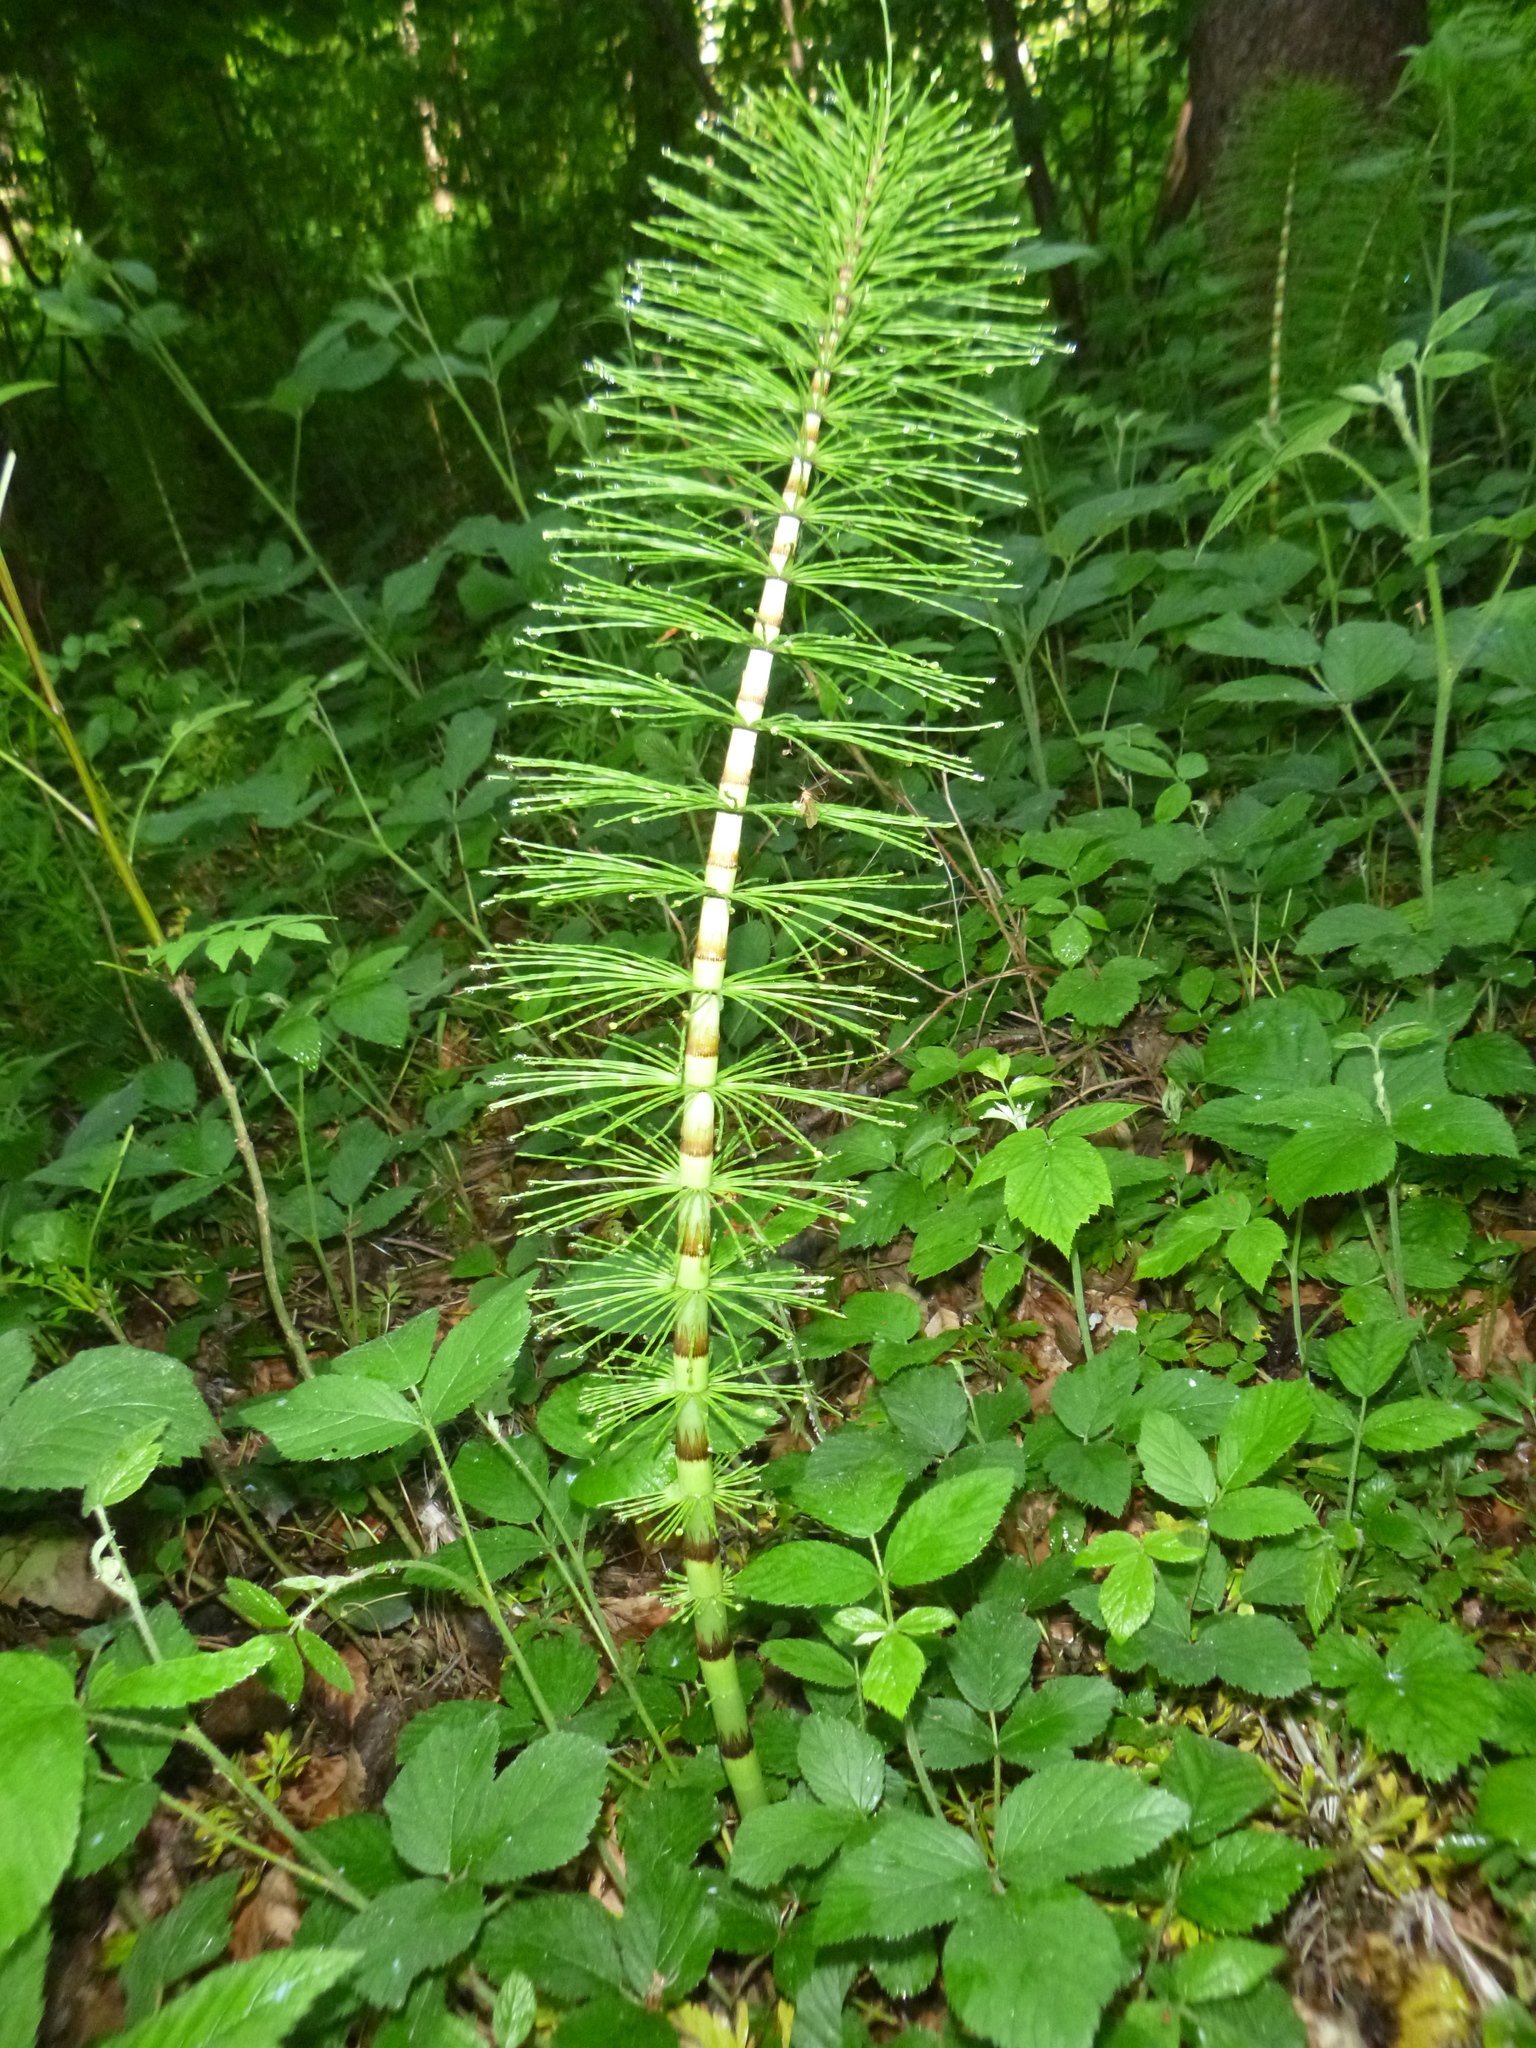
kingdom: Plantae
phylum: Tracheophyta
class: Polypodiopsida
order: Equisetales
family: Equisetaceae
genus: Equisetum
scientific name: Equisetum telmateia
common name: Great horsetail
